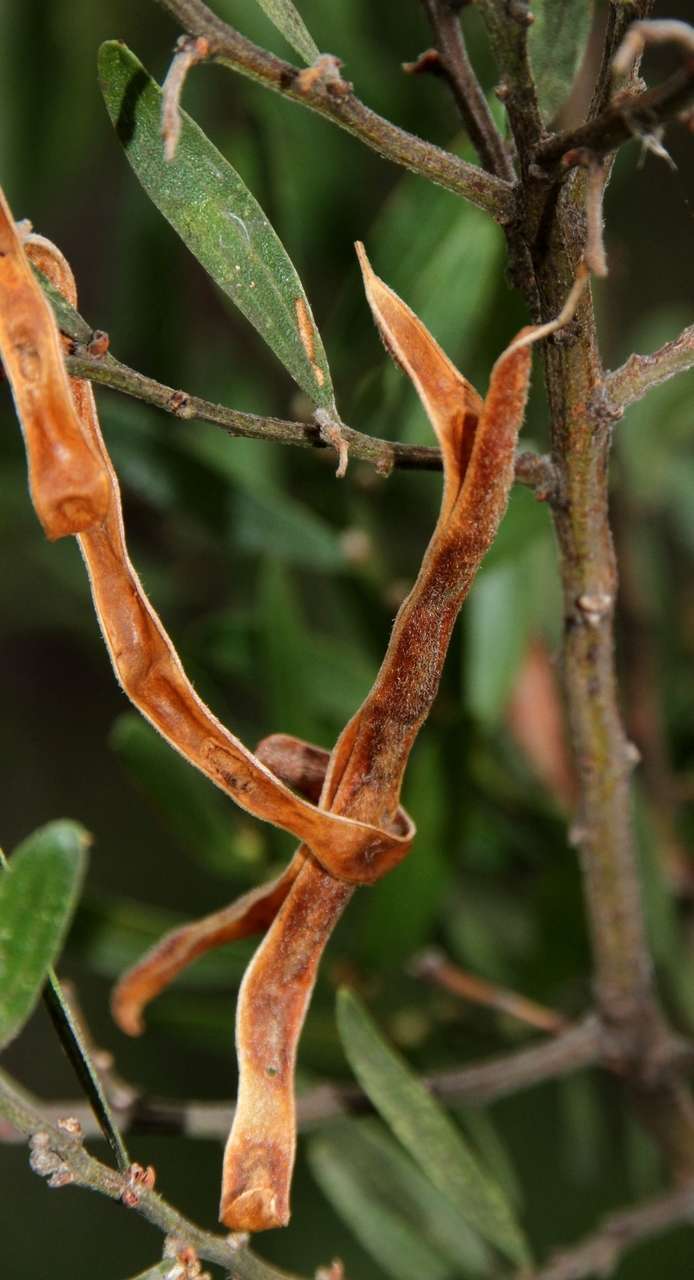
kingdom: Plantae
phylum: Tracheophyta
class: Magnoliopsida
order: Fabales
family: Fabaceae
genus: Acacia
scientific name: Acacia rostriformis
